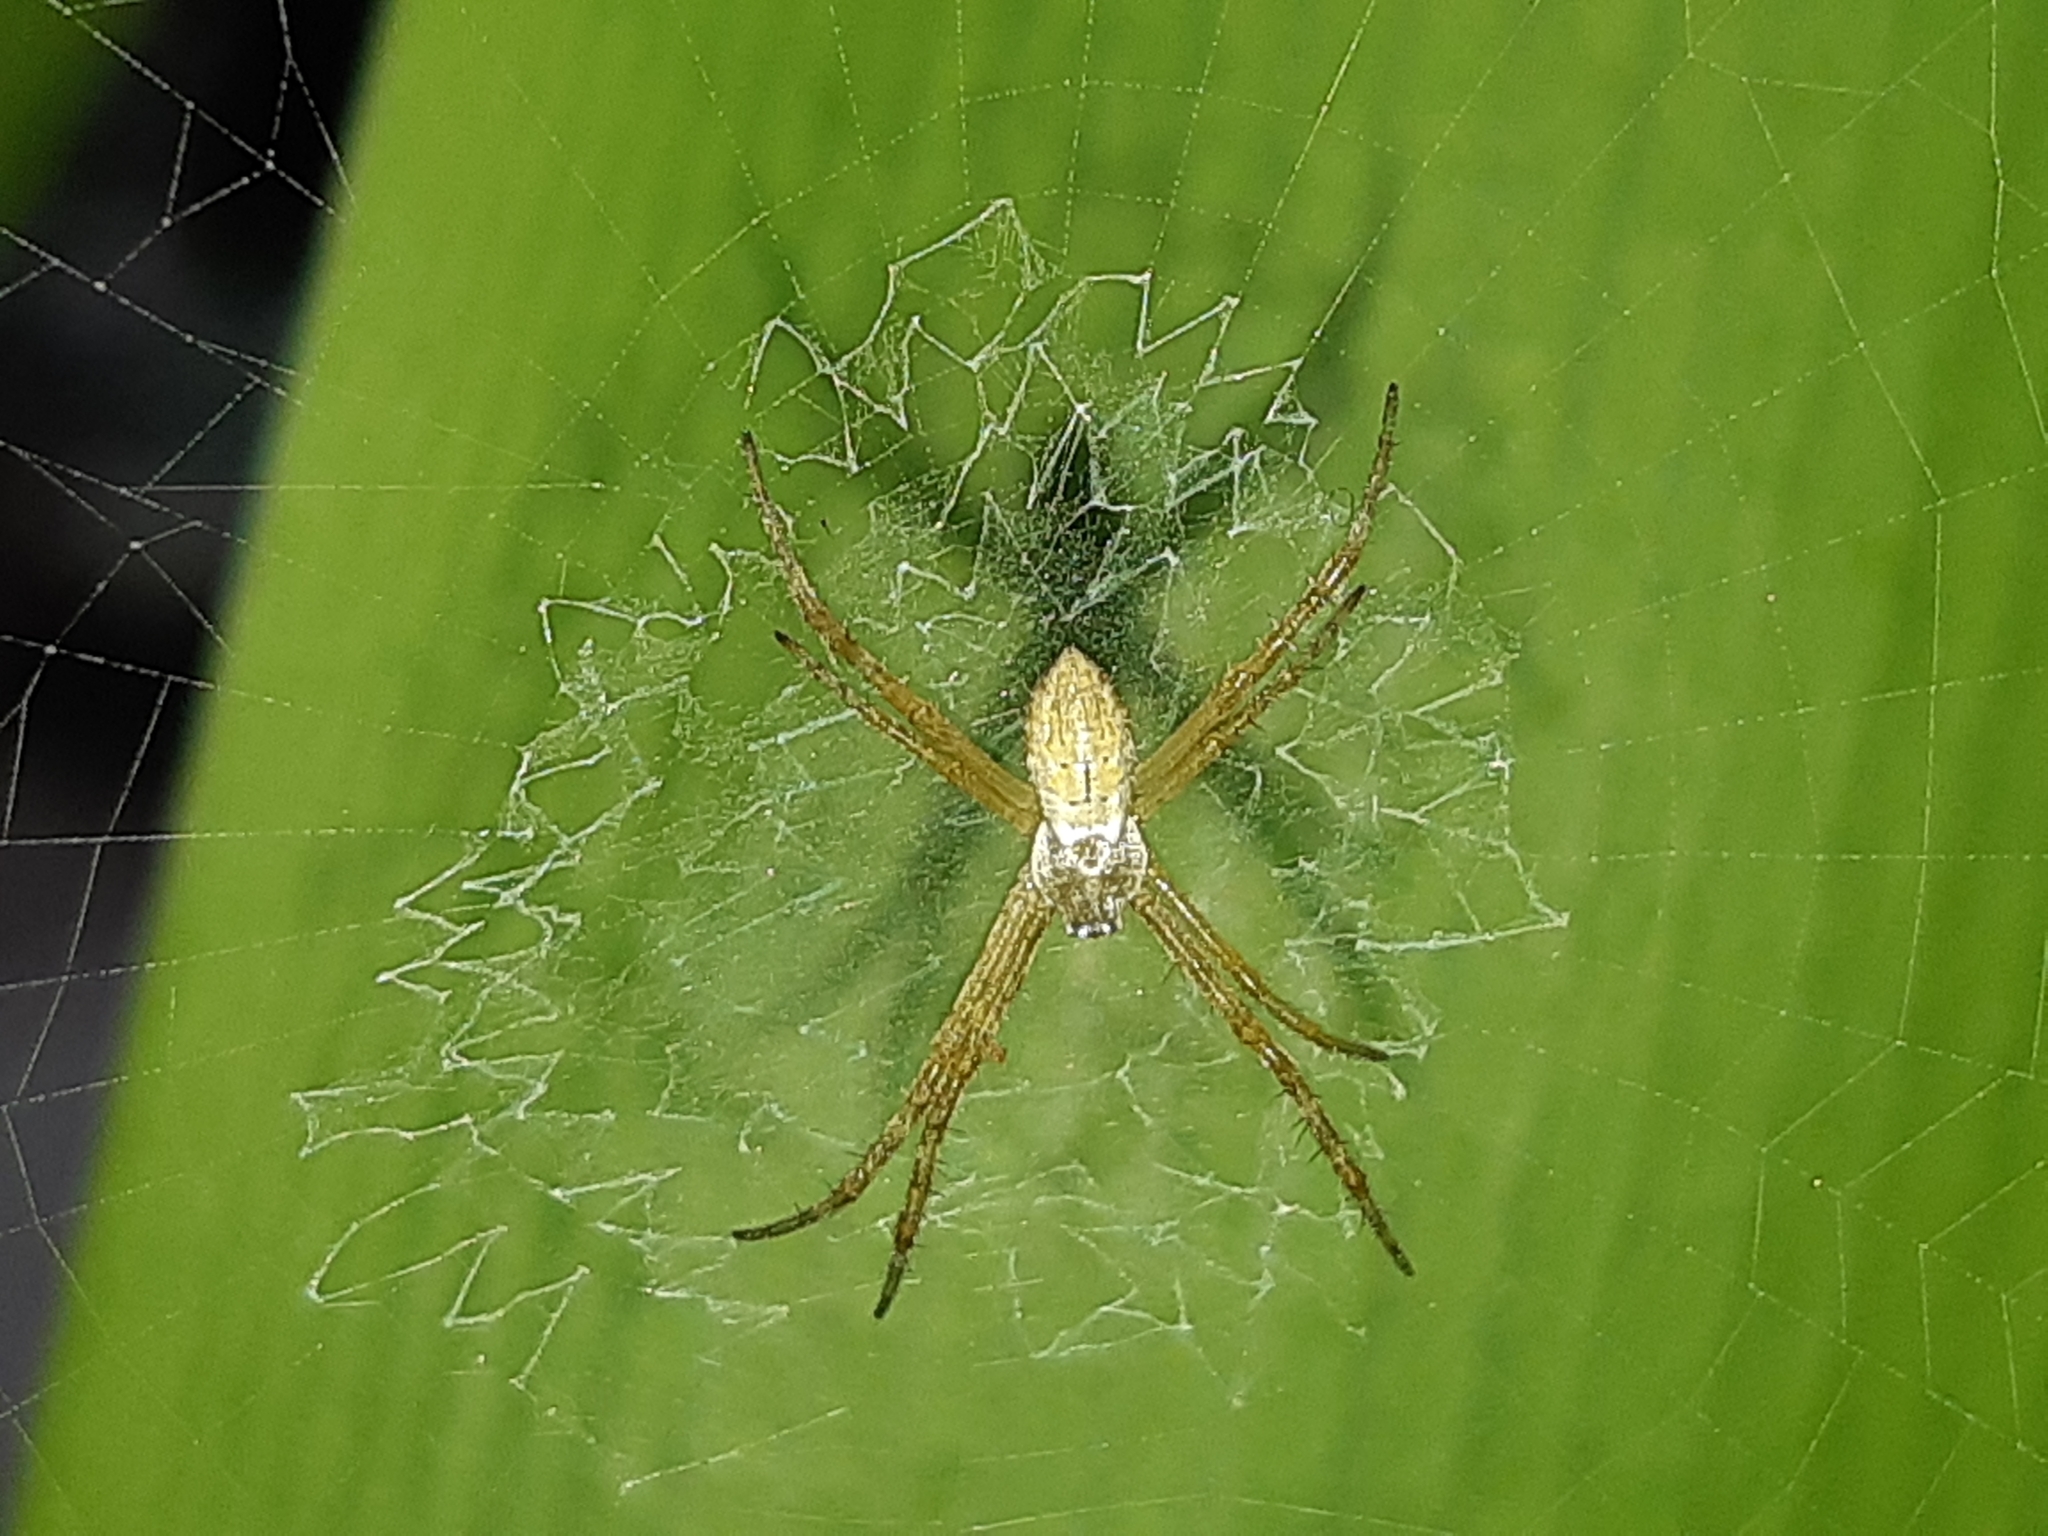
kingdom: Animalia
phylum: Arthropoda
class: Arachnida
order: Araneae
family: Araneidae
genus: Argiope
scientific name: Argiope argentata
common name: Orb weavers
